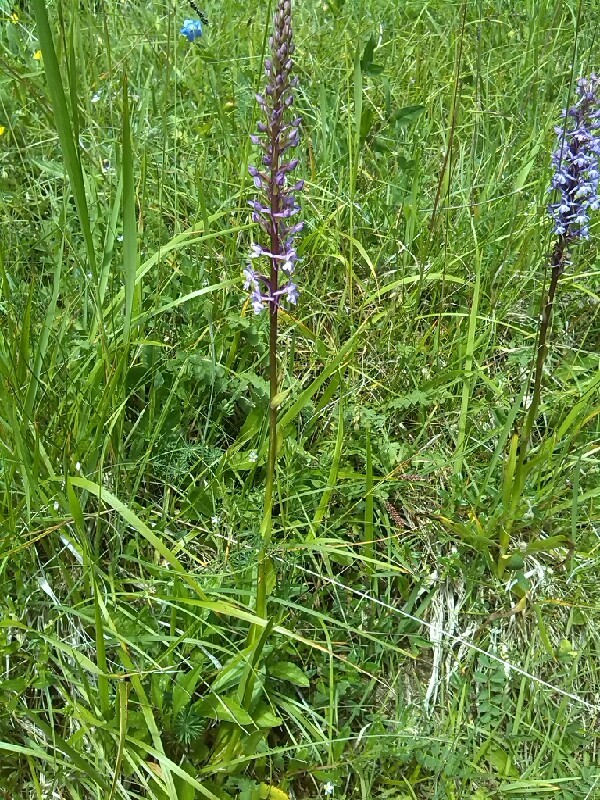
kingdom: Plantae
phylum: Tracheophyta
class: Liliopsida
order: Asparagales
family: Orchidaceae
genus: Gymnadenia
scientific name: Gymnadenia conopsea
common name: Fragrant orchid
